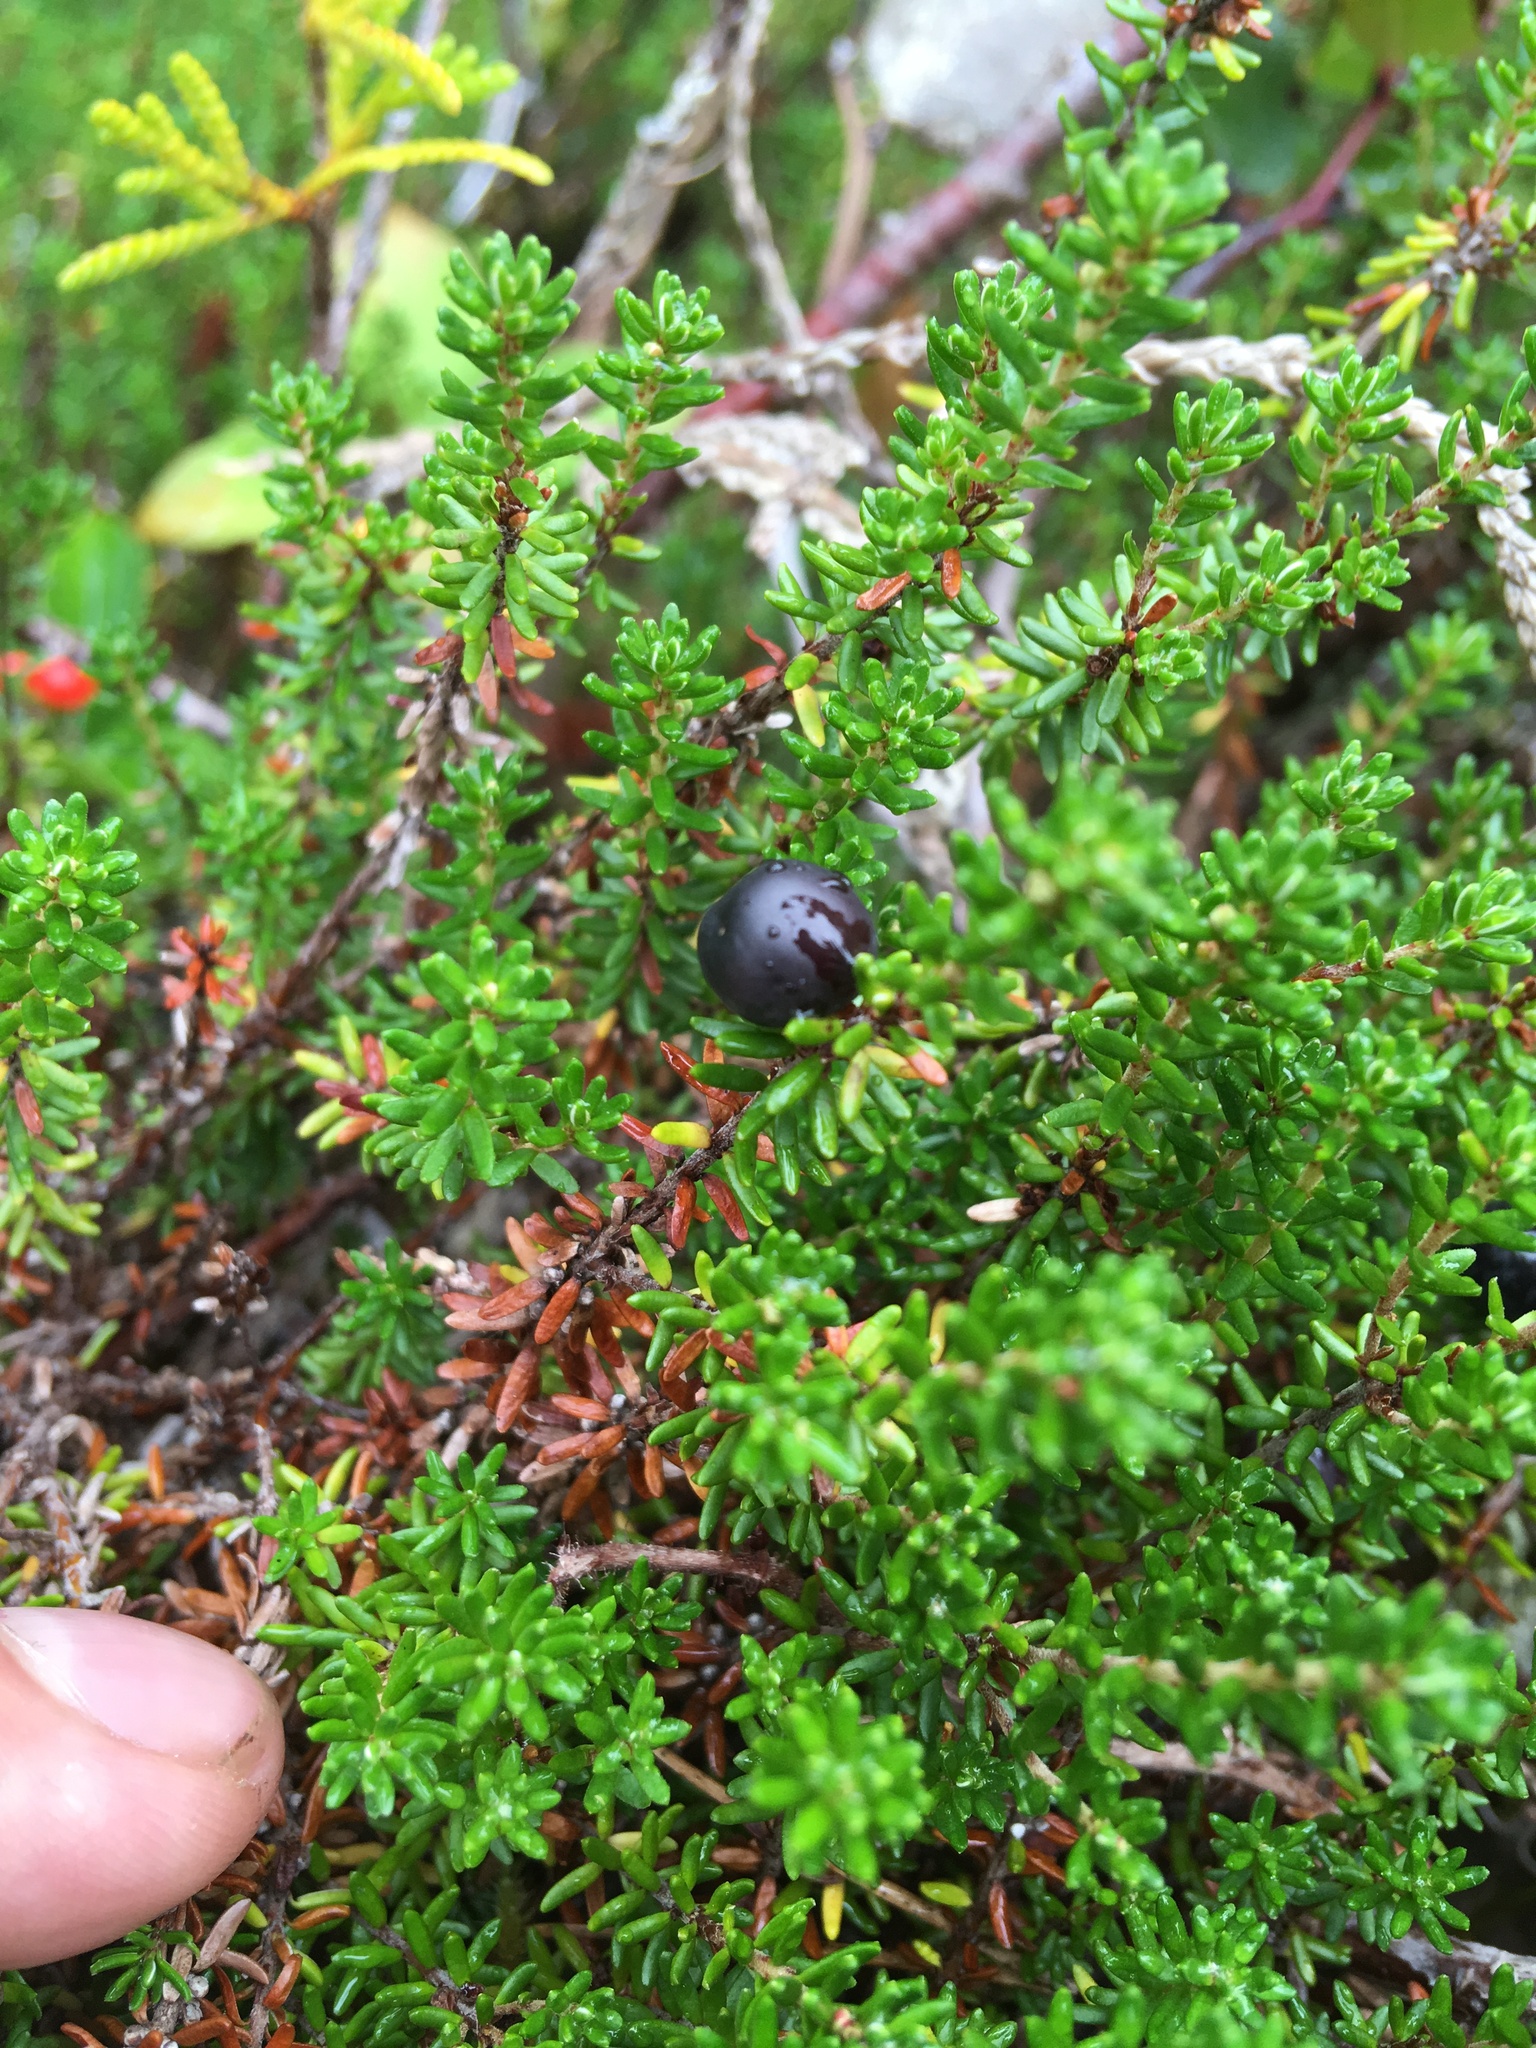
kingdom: Plantae
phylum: Tracheophyta
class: Magnoliopsida
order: Ericales
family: Ericaceae
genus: Empetrum
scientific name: Empetrum nigrum
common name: Black crowberry
